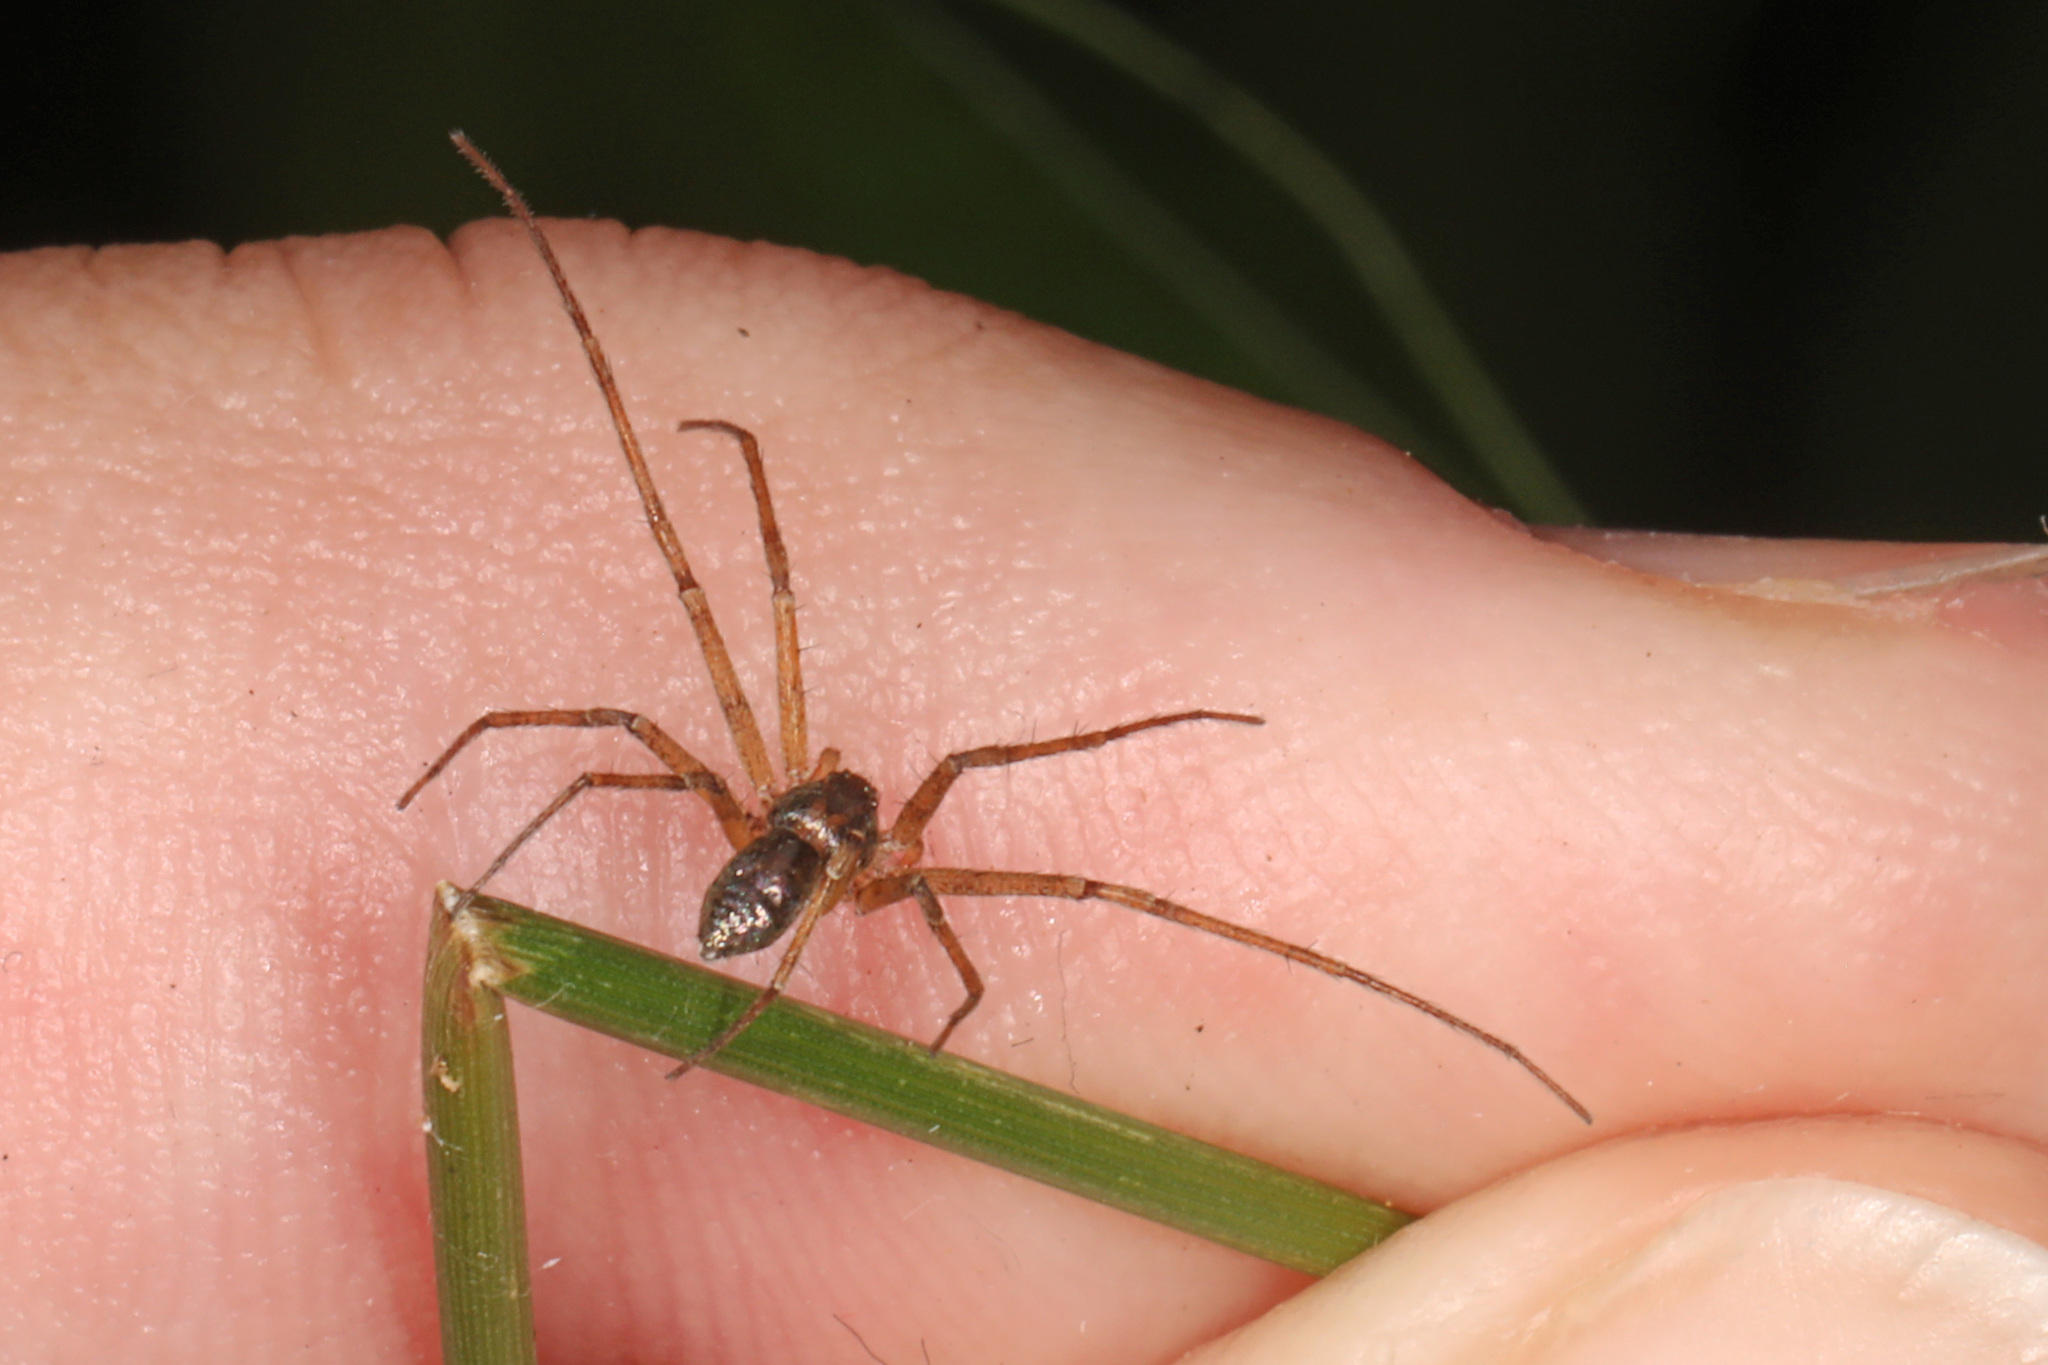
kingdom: Animalia
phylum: Arthropoda
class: Arachnida
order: Araneae
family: Philodromidae
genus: Philodromus
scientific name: Philodromus marxi
